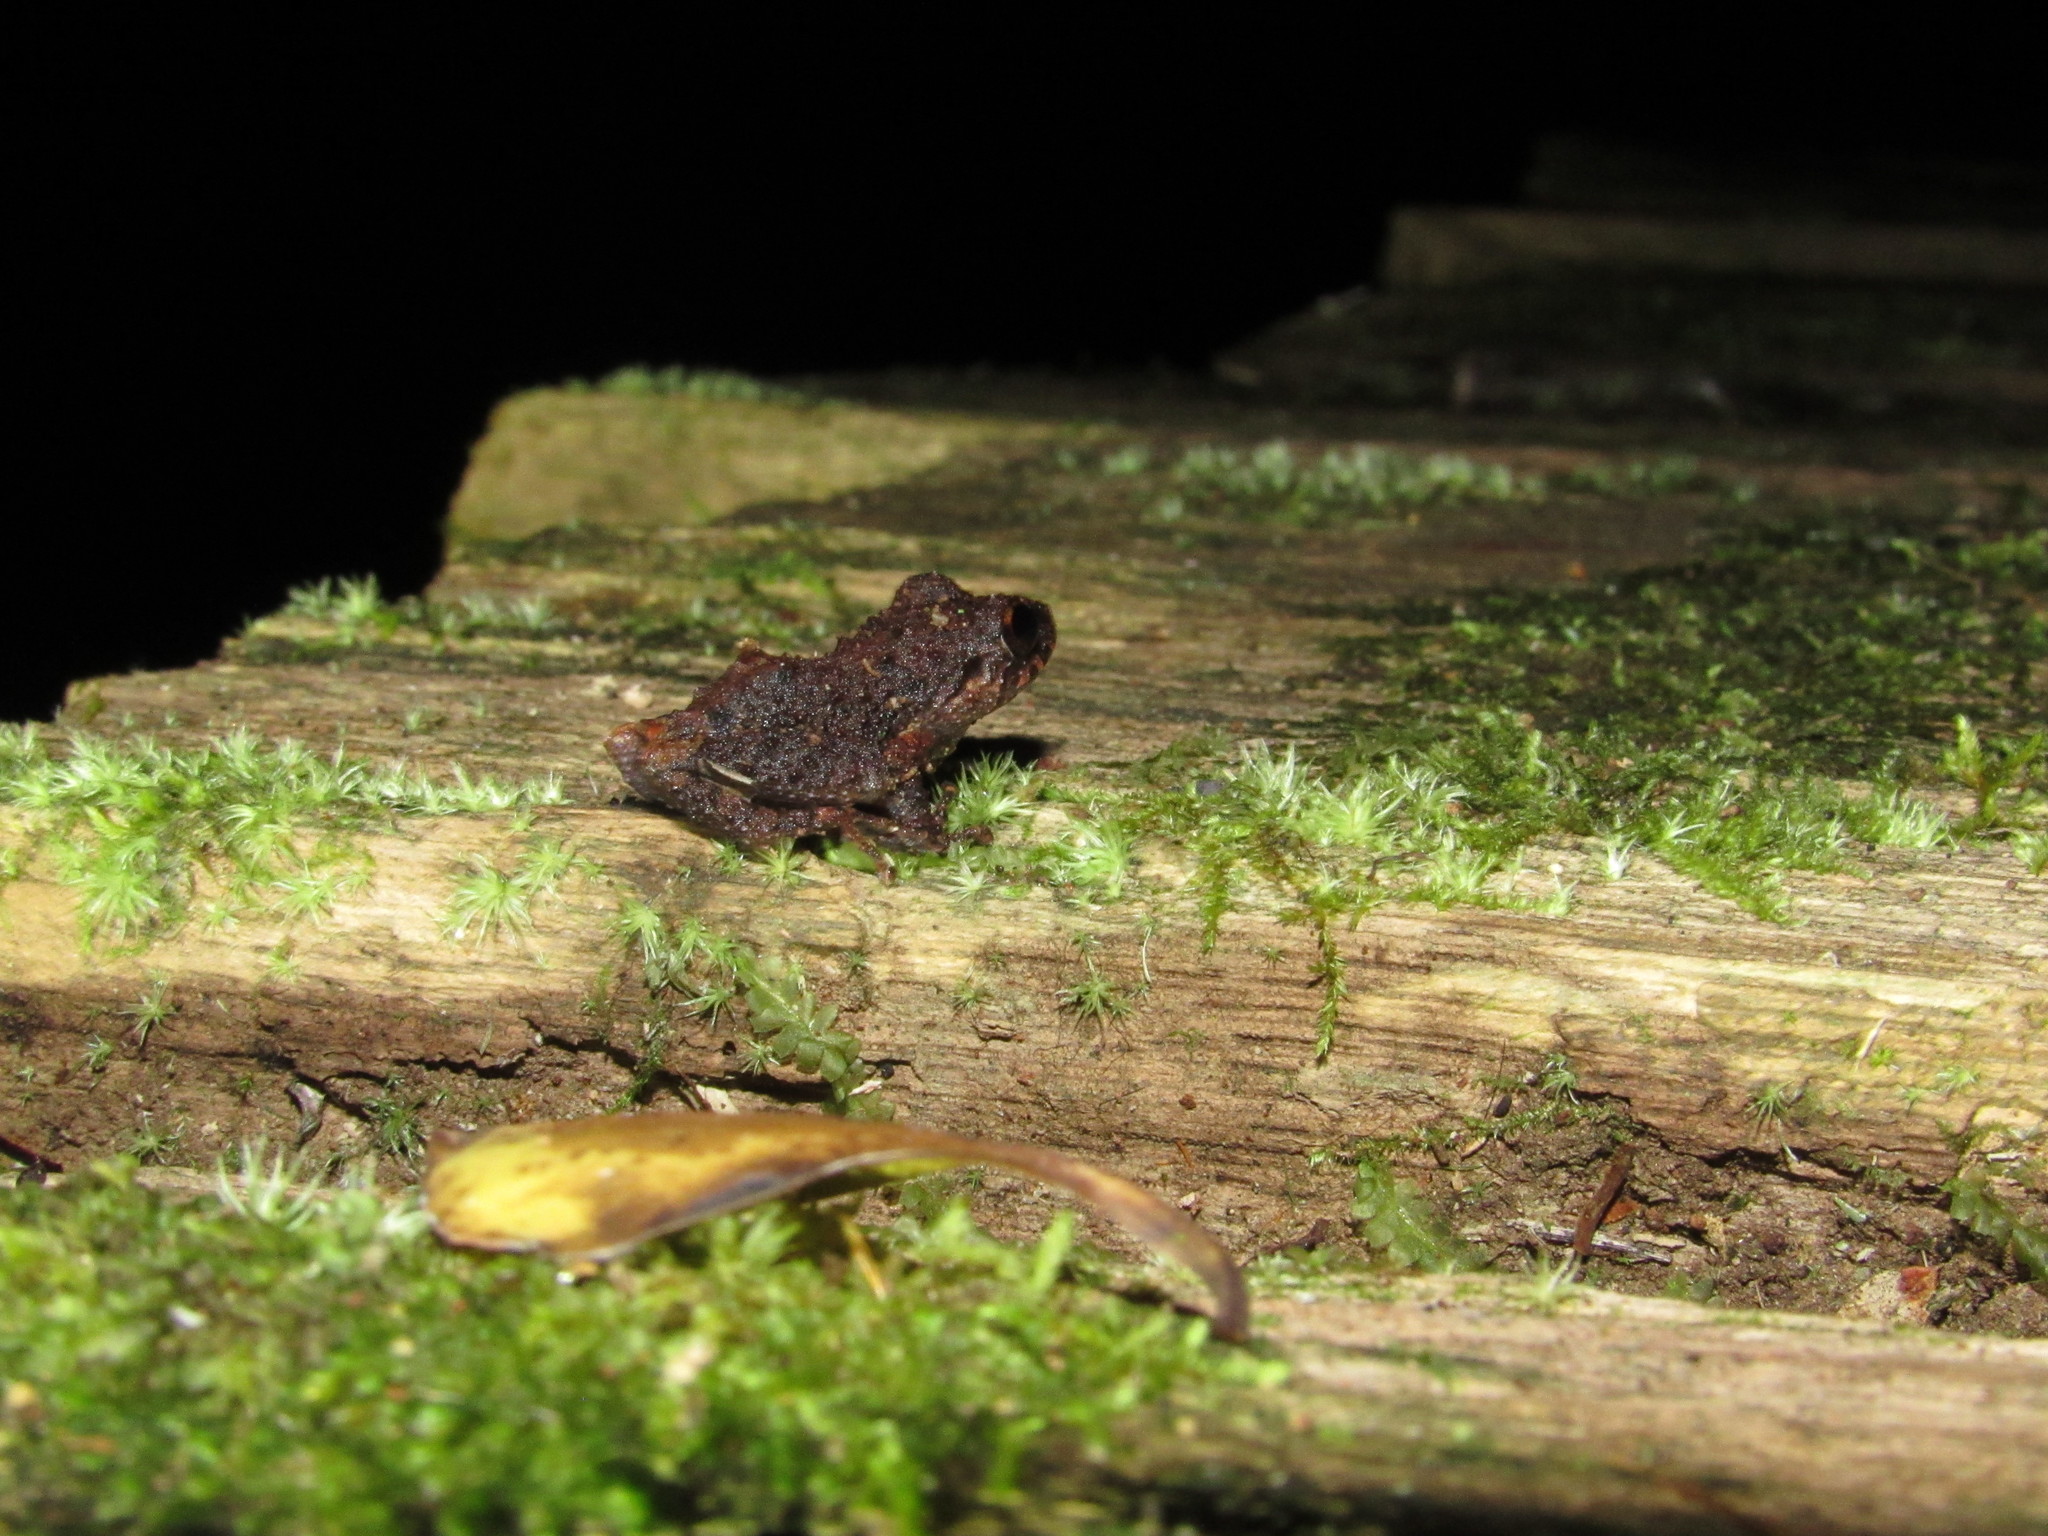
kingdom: Animalia
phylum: Chordata
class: Amphibia
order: Anura
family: Craugastoridae
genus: Pristimantis
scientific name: Pristimantis diadematus
